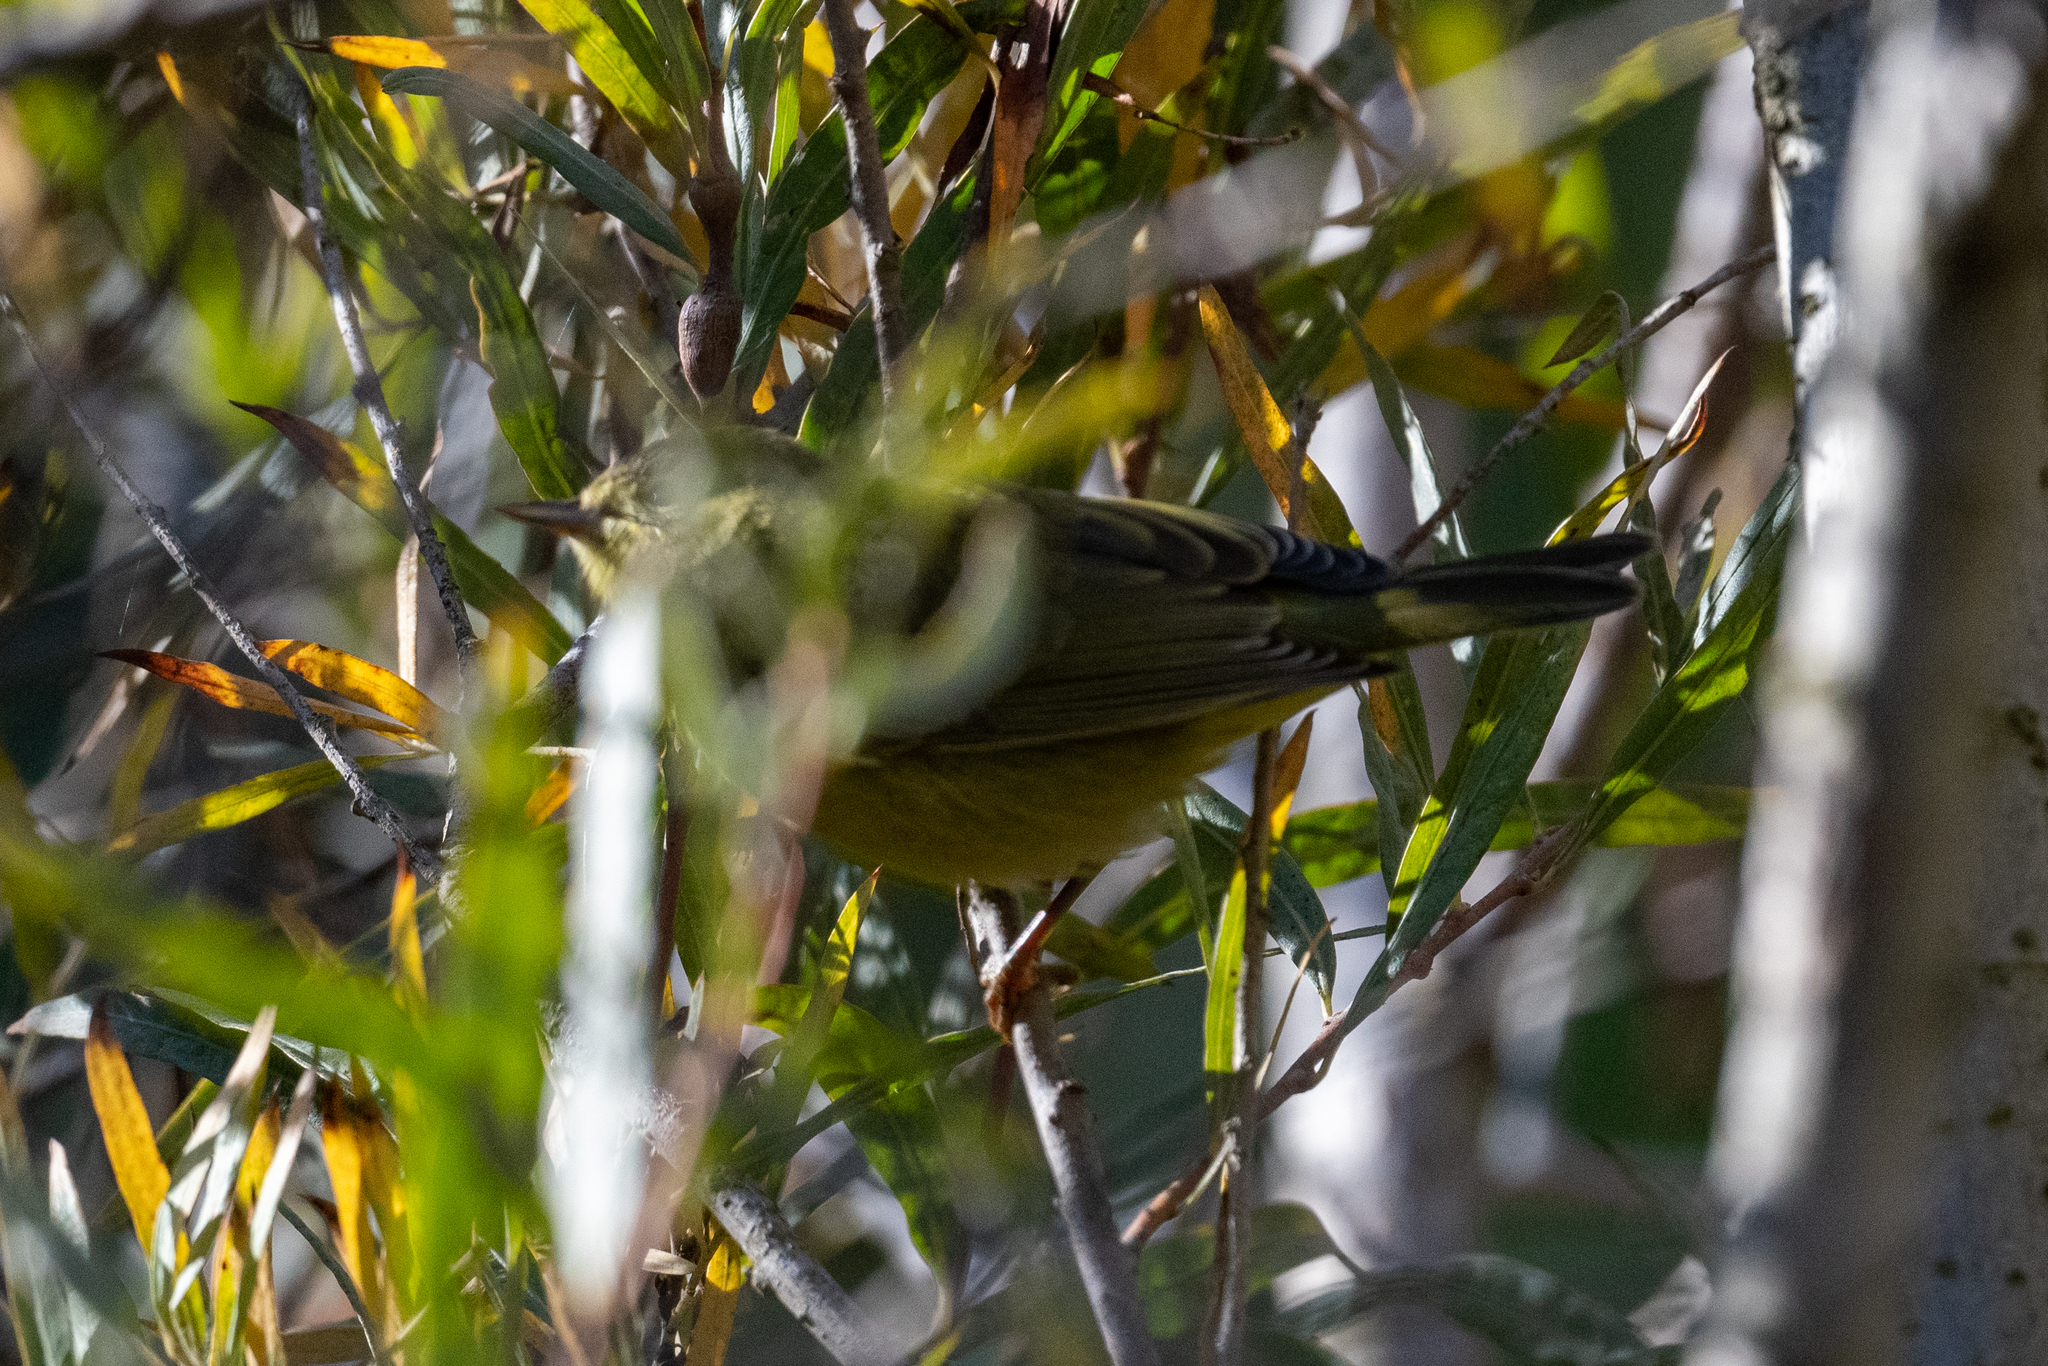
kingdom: Animalia
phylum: Chordata
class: Aves
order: Passeriformes
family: Parulidae
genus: Leiothlypis
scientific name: Leiothlypis celata
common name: Orange-crowned warbler
